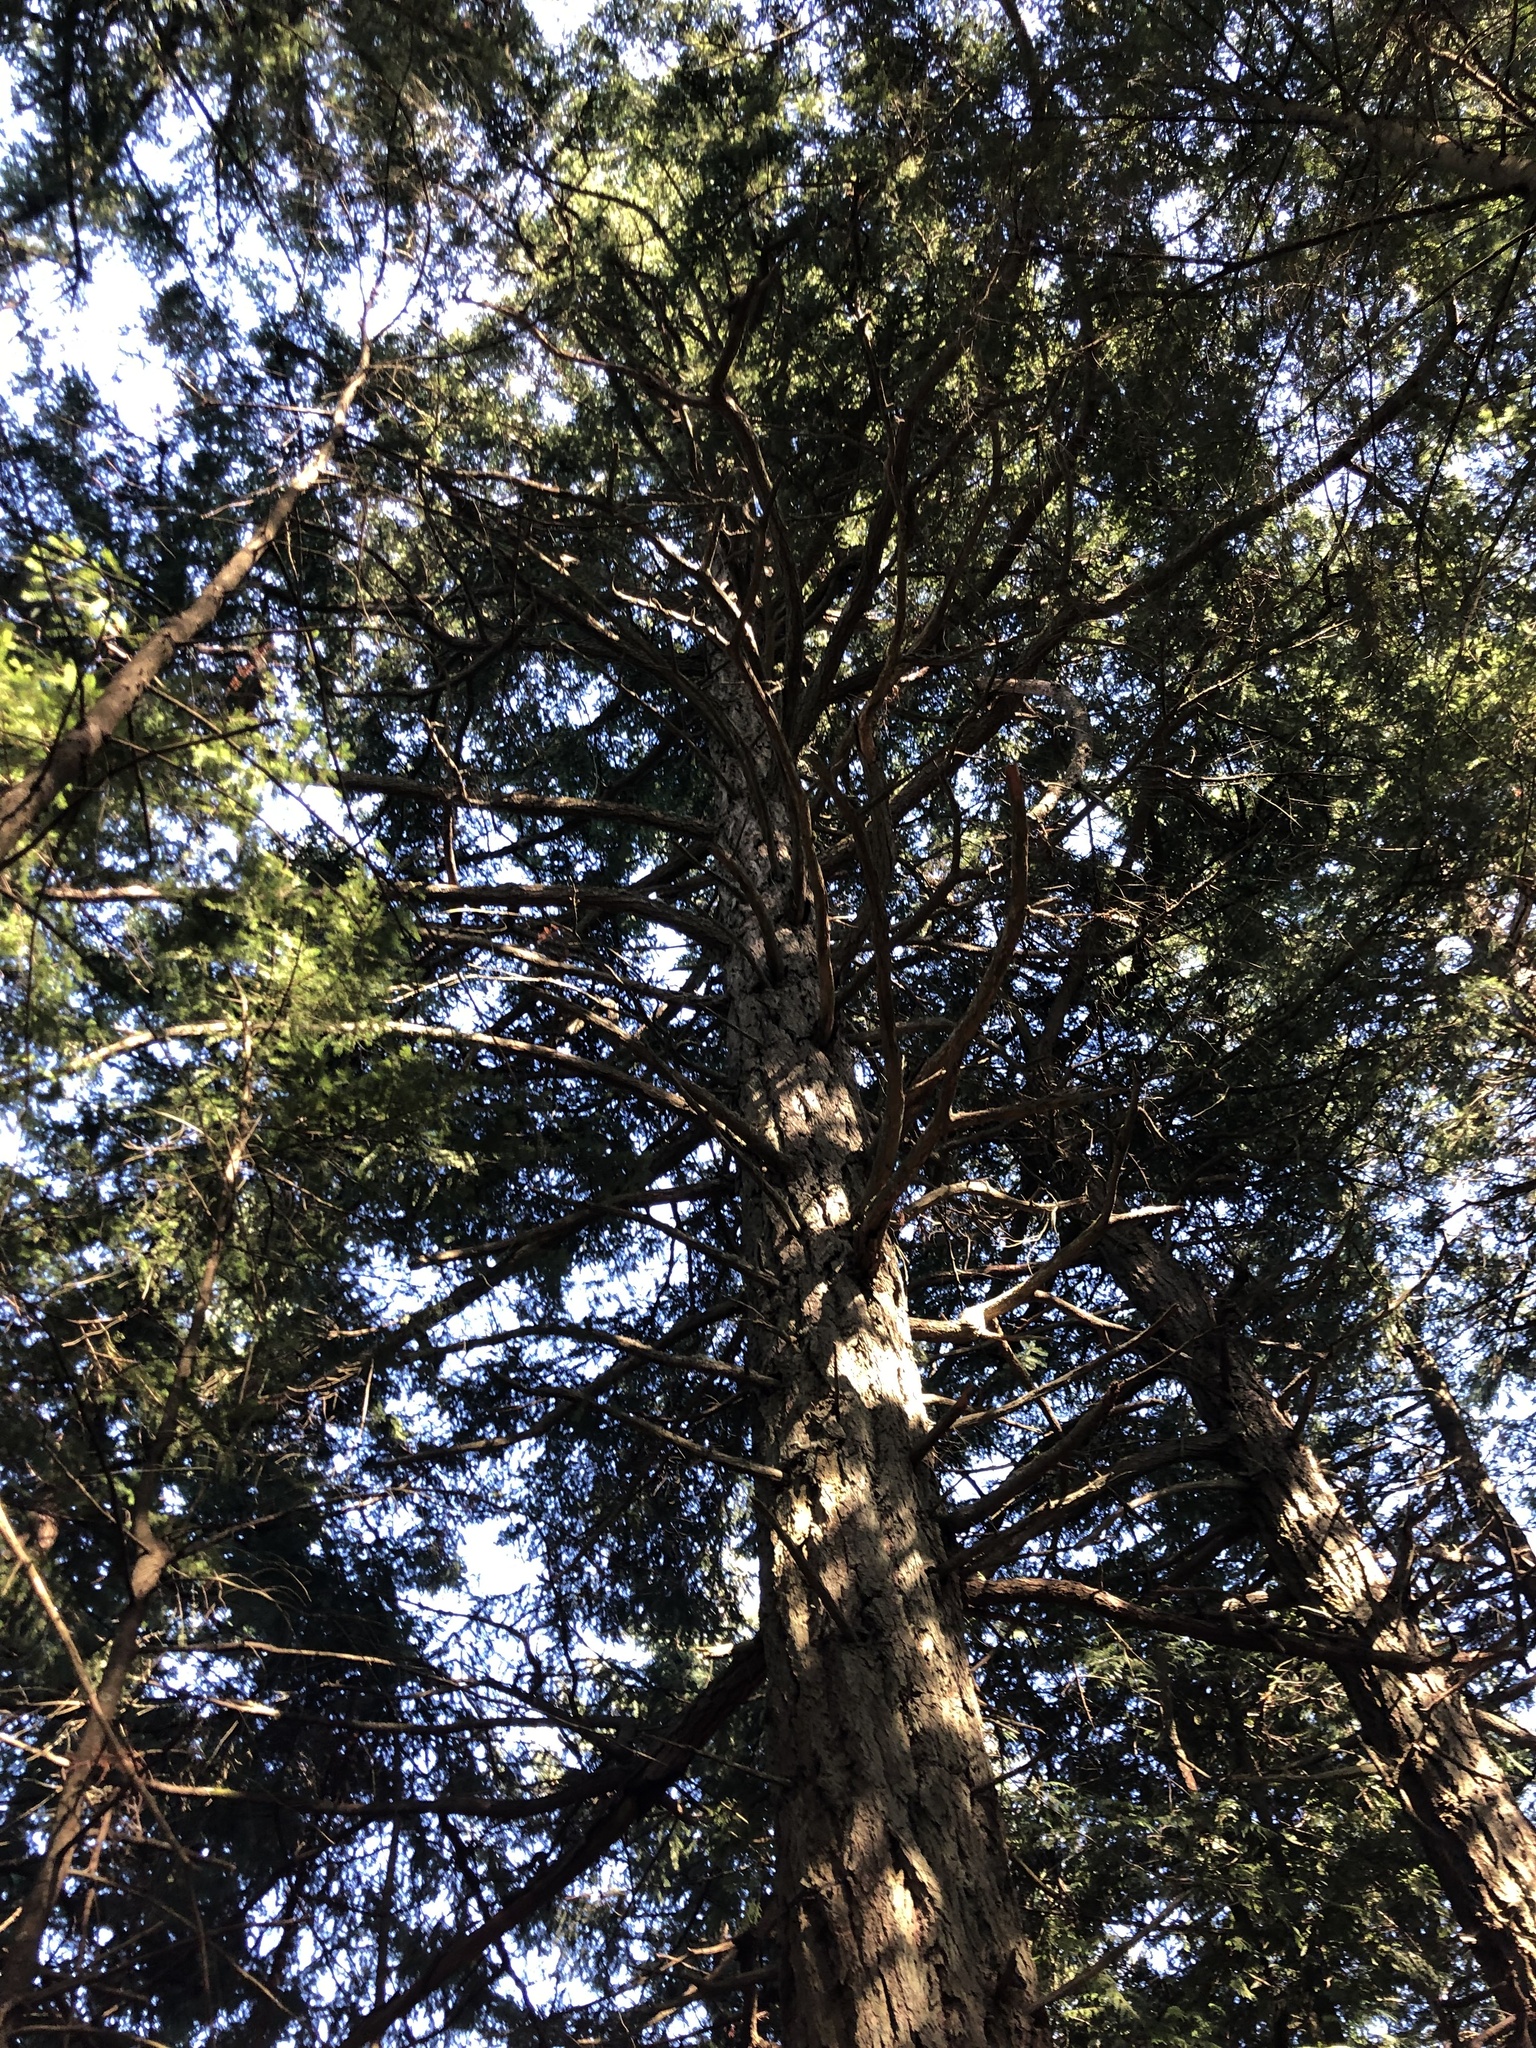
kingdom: Plantae
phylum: Tracheophyta
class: Pinopsida
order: Pinales
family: Pinaceae
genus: Pseudotsuga
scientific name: Pseudotsuga menziesii
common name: Douglas fir
